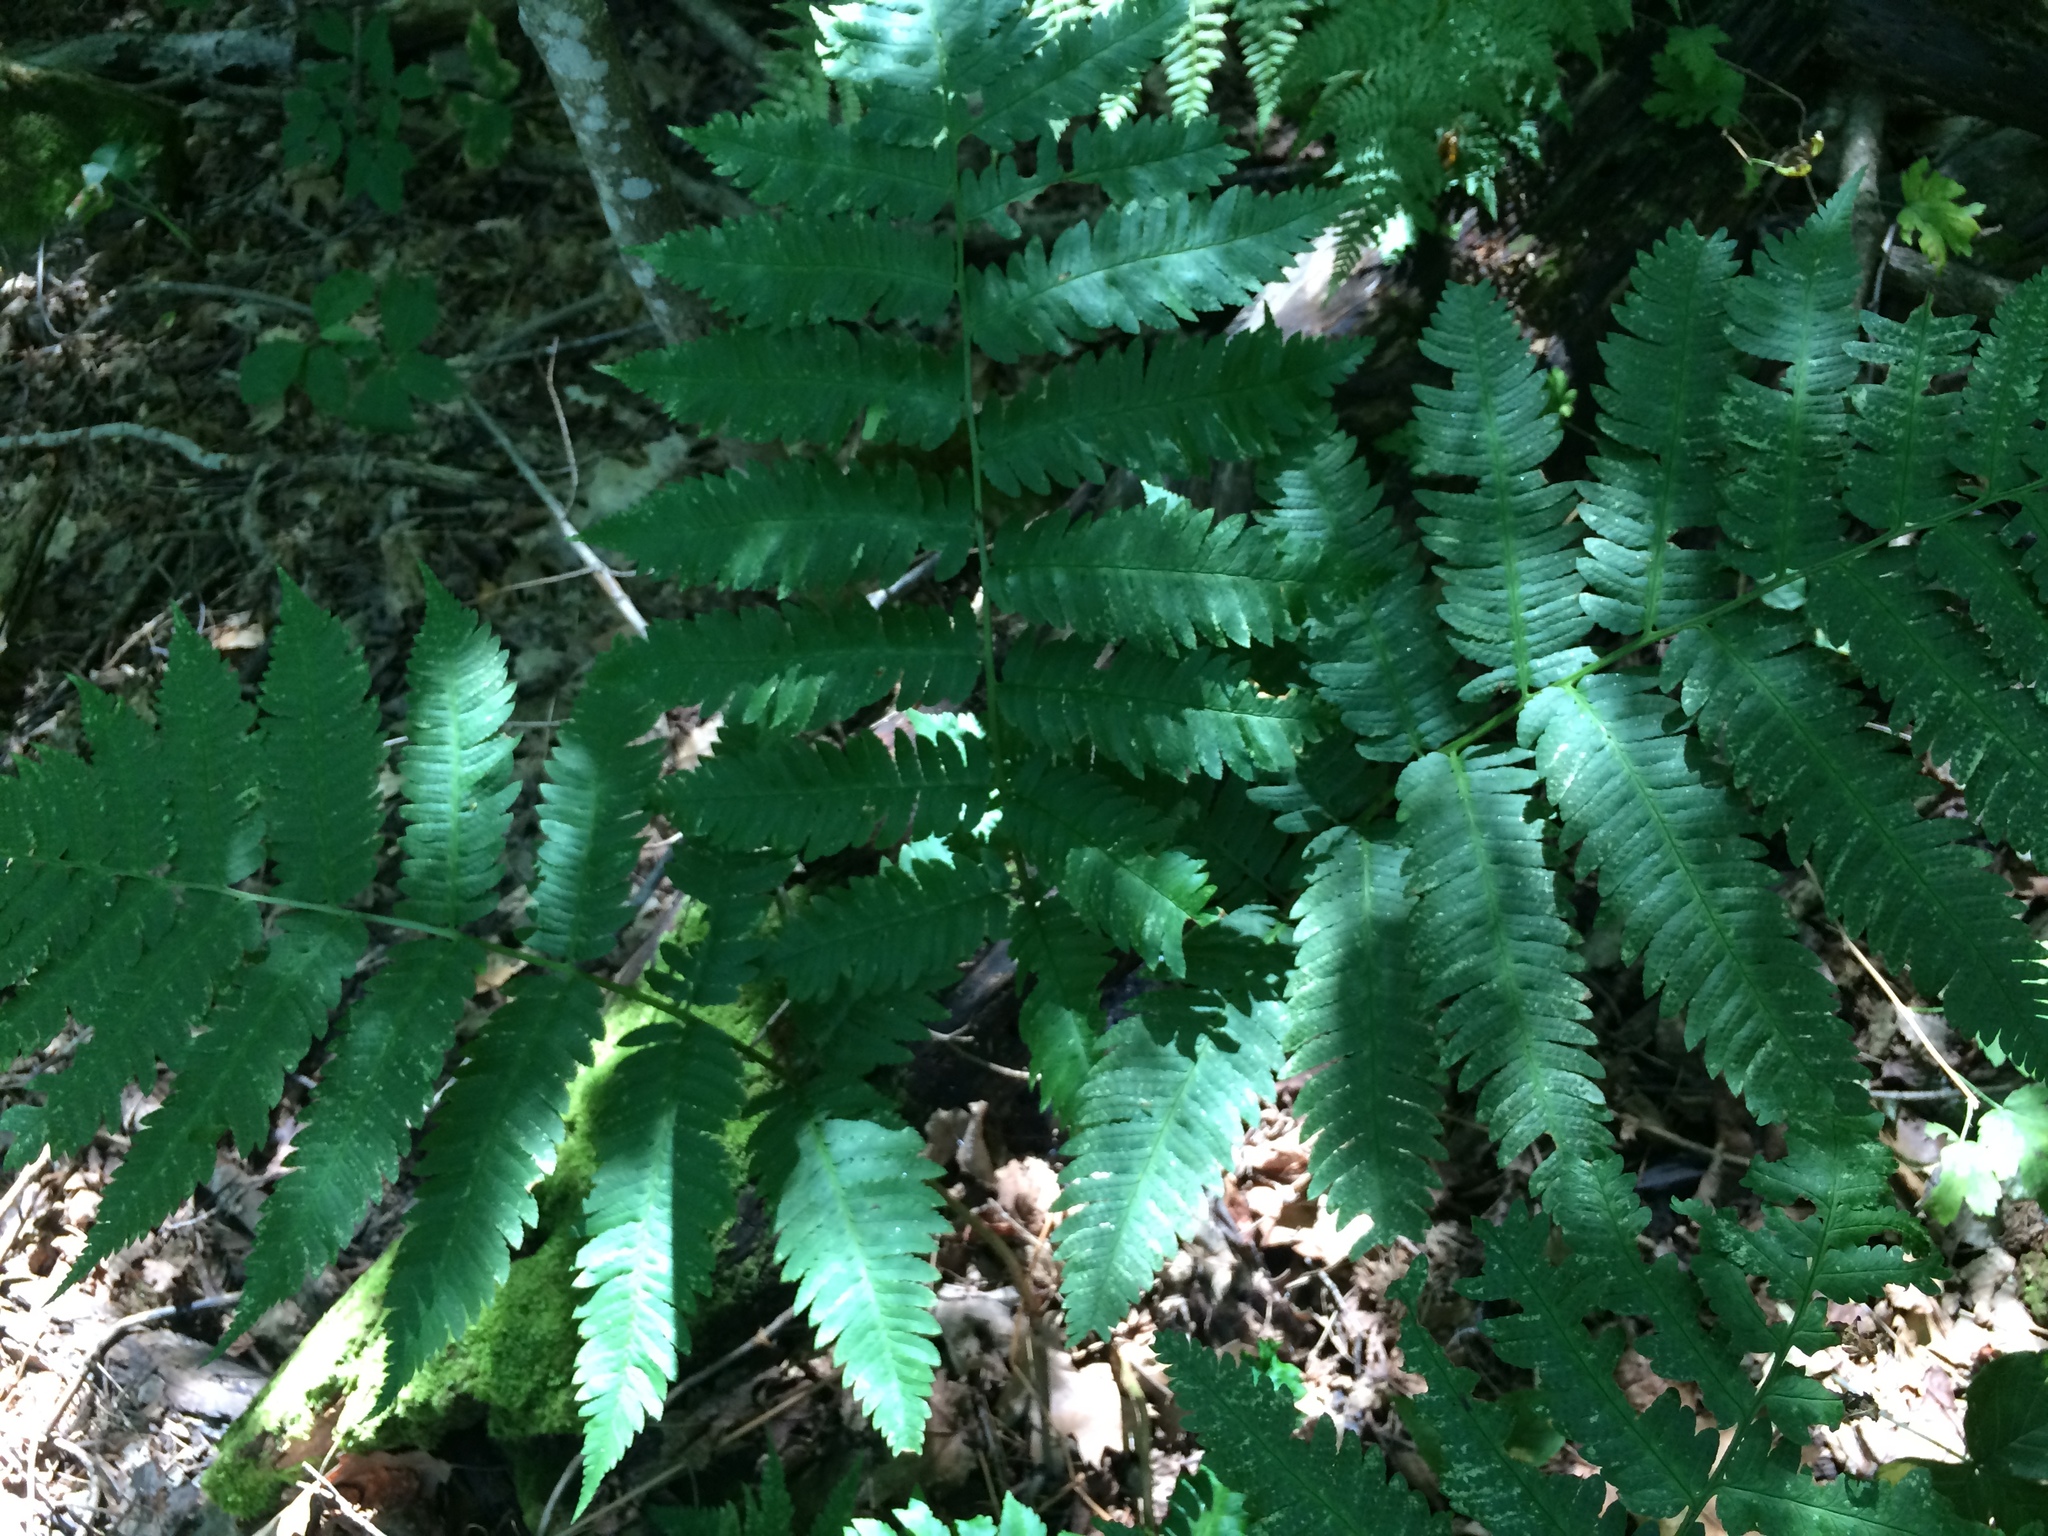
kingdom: Plantae
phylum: Tracheophyta
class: Polypodiopsida
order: Polypodiales
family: Dryopteridaceae
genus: Dryopteris
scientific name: Dryopteris goldieana
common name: Goldie's fern
